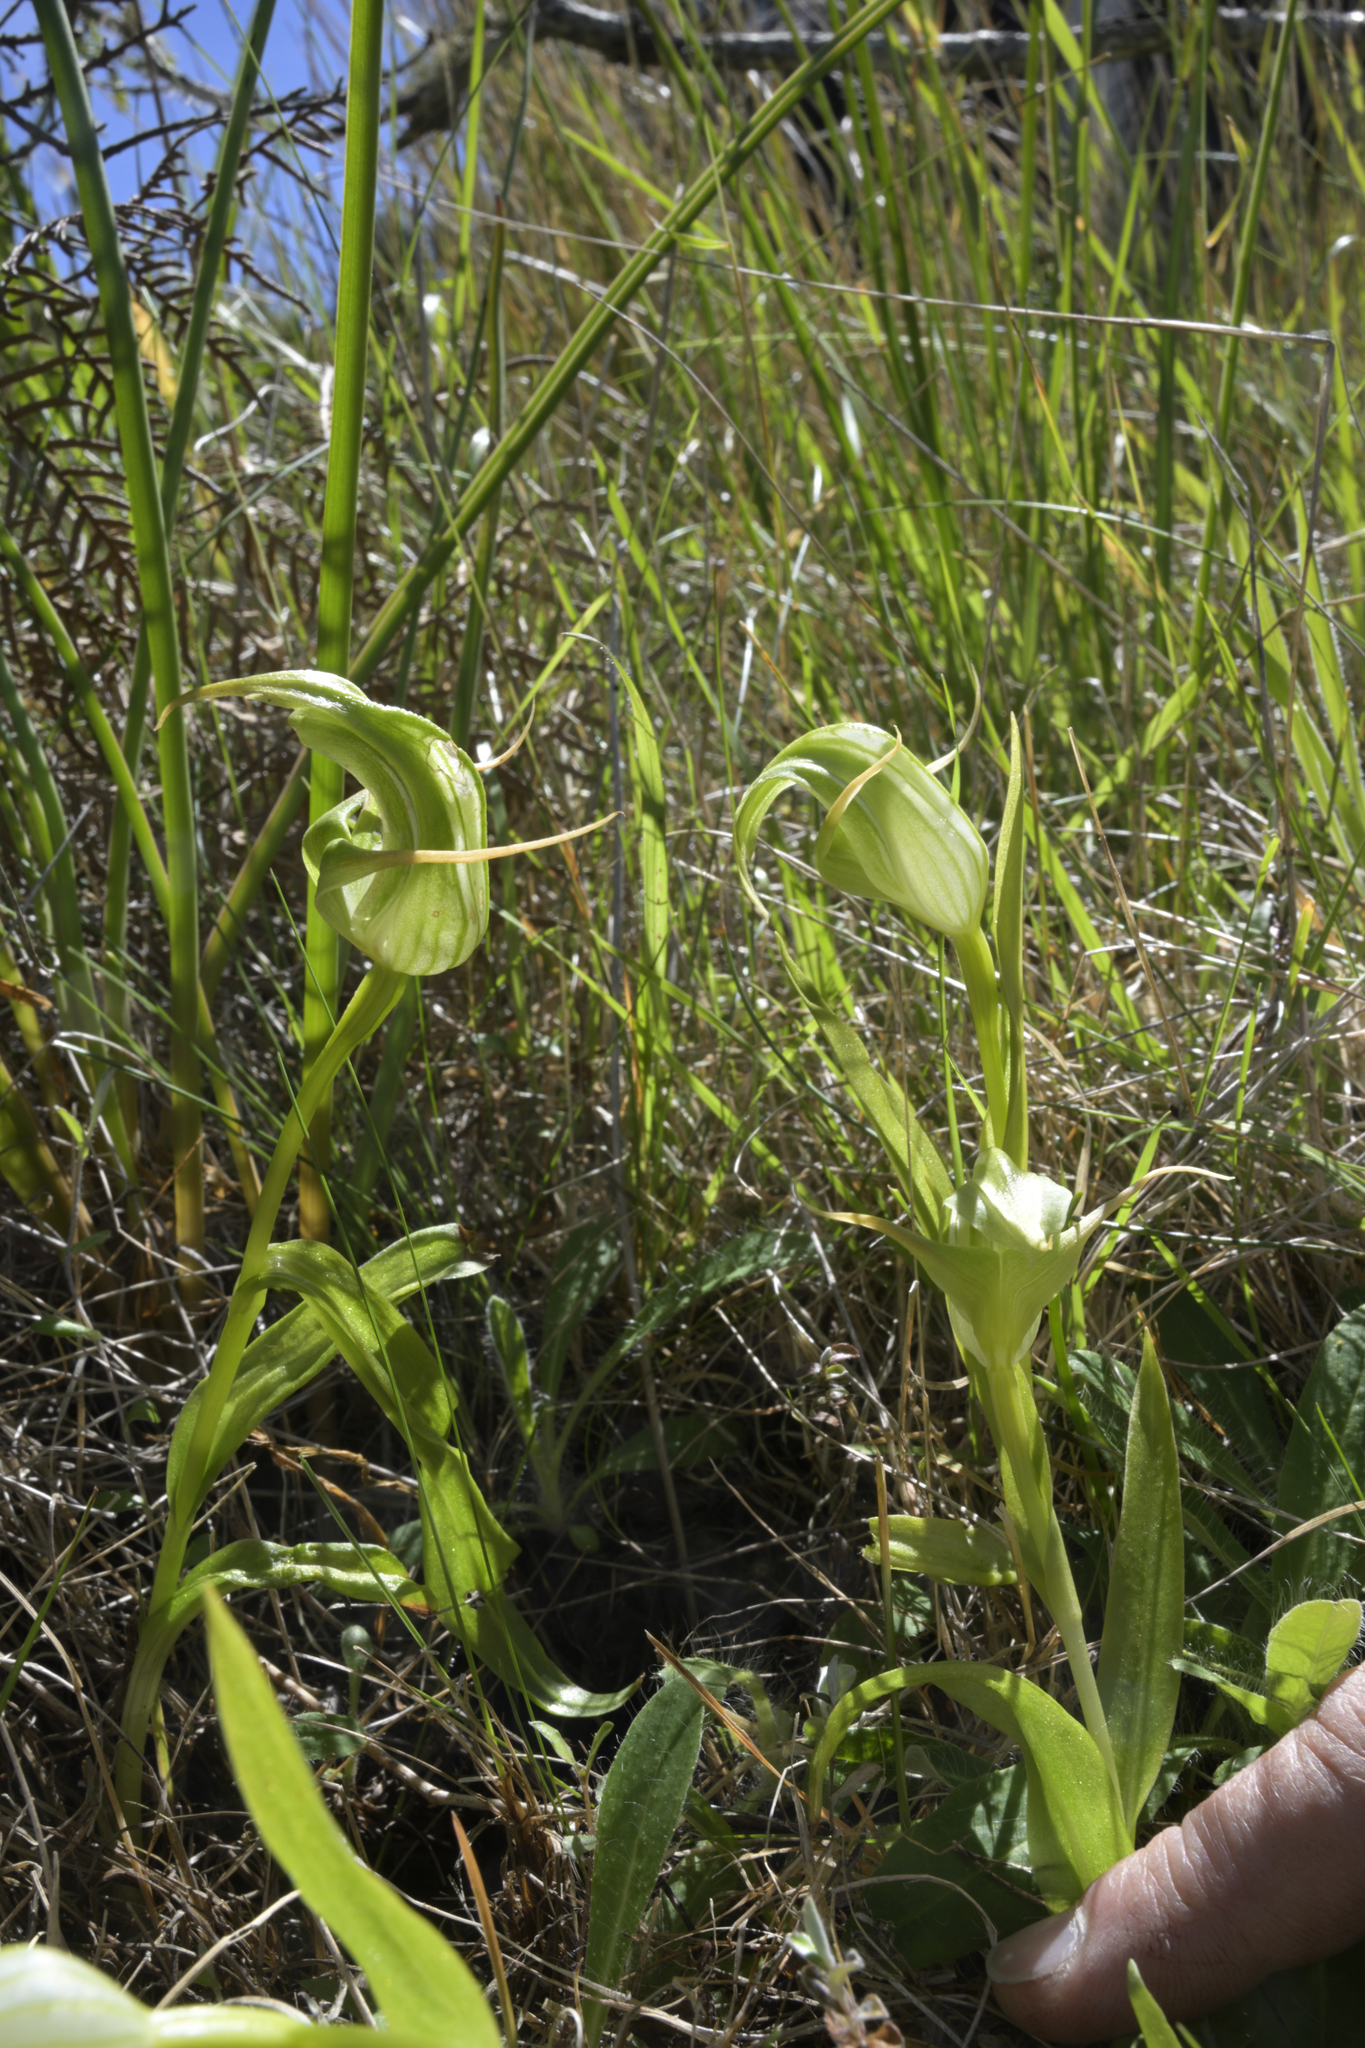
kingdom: Plantae
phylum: Tracheophyta
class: Liliopsida
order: Asparagales
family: Orchidaceae
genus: Pterostylis
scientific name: Pterostylis australis
